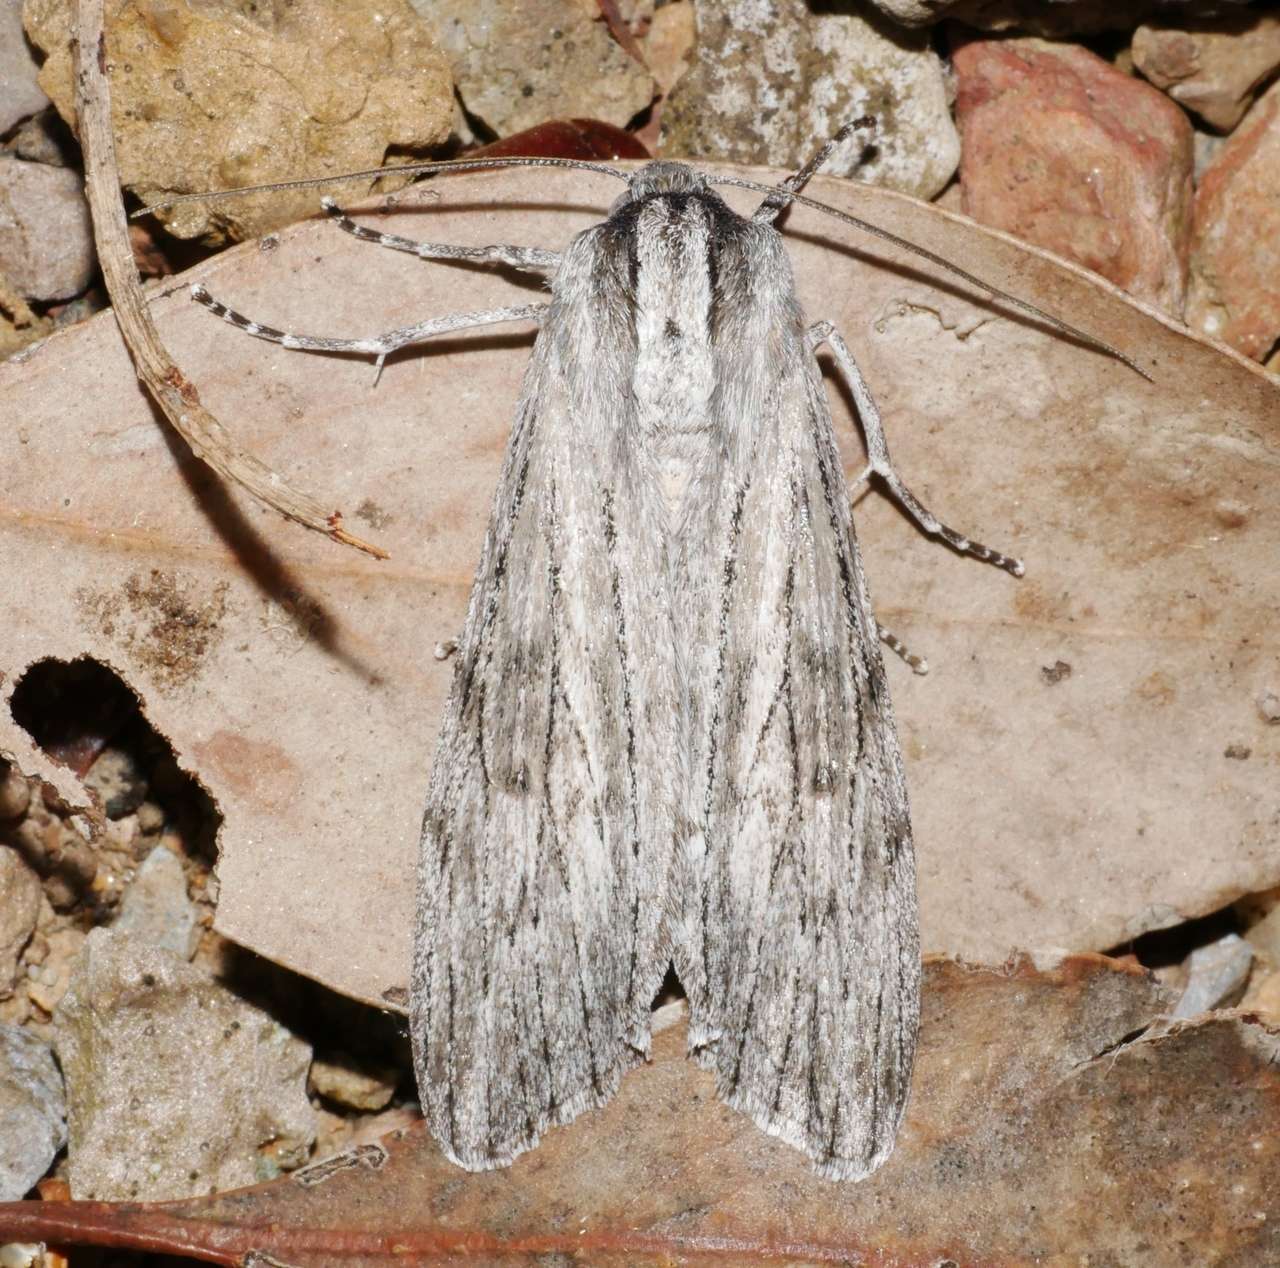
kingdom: Animalia
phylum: Arthropoda
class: Insecta
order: Lepidoptera
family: Geometridae
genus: Capusa
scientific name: Capusa senilis
